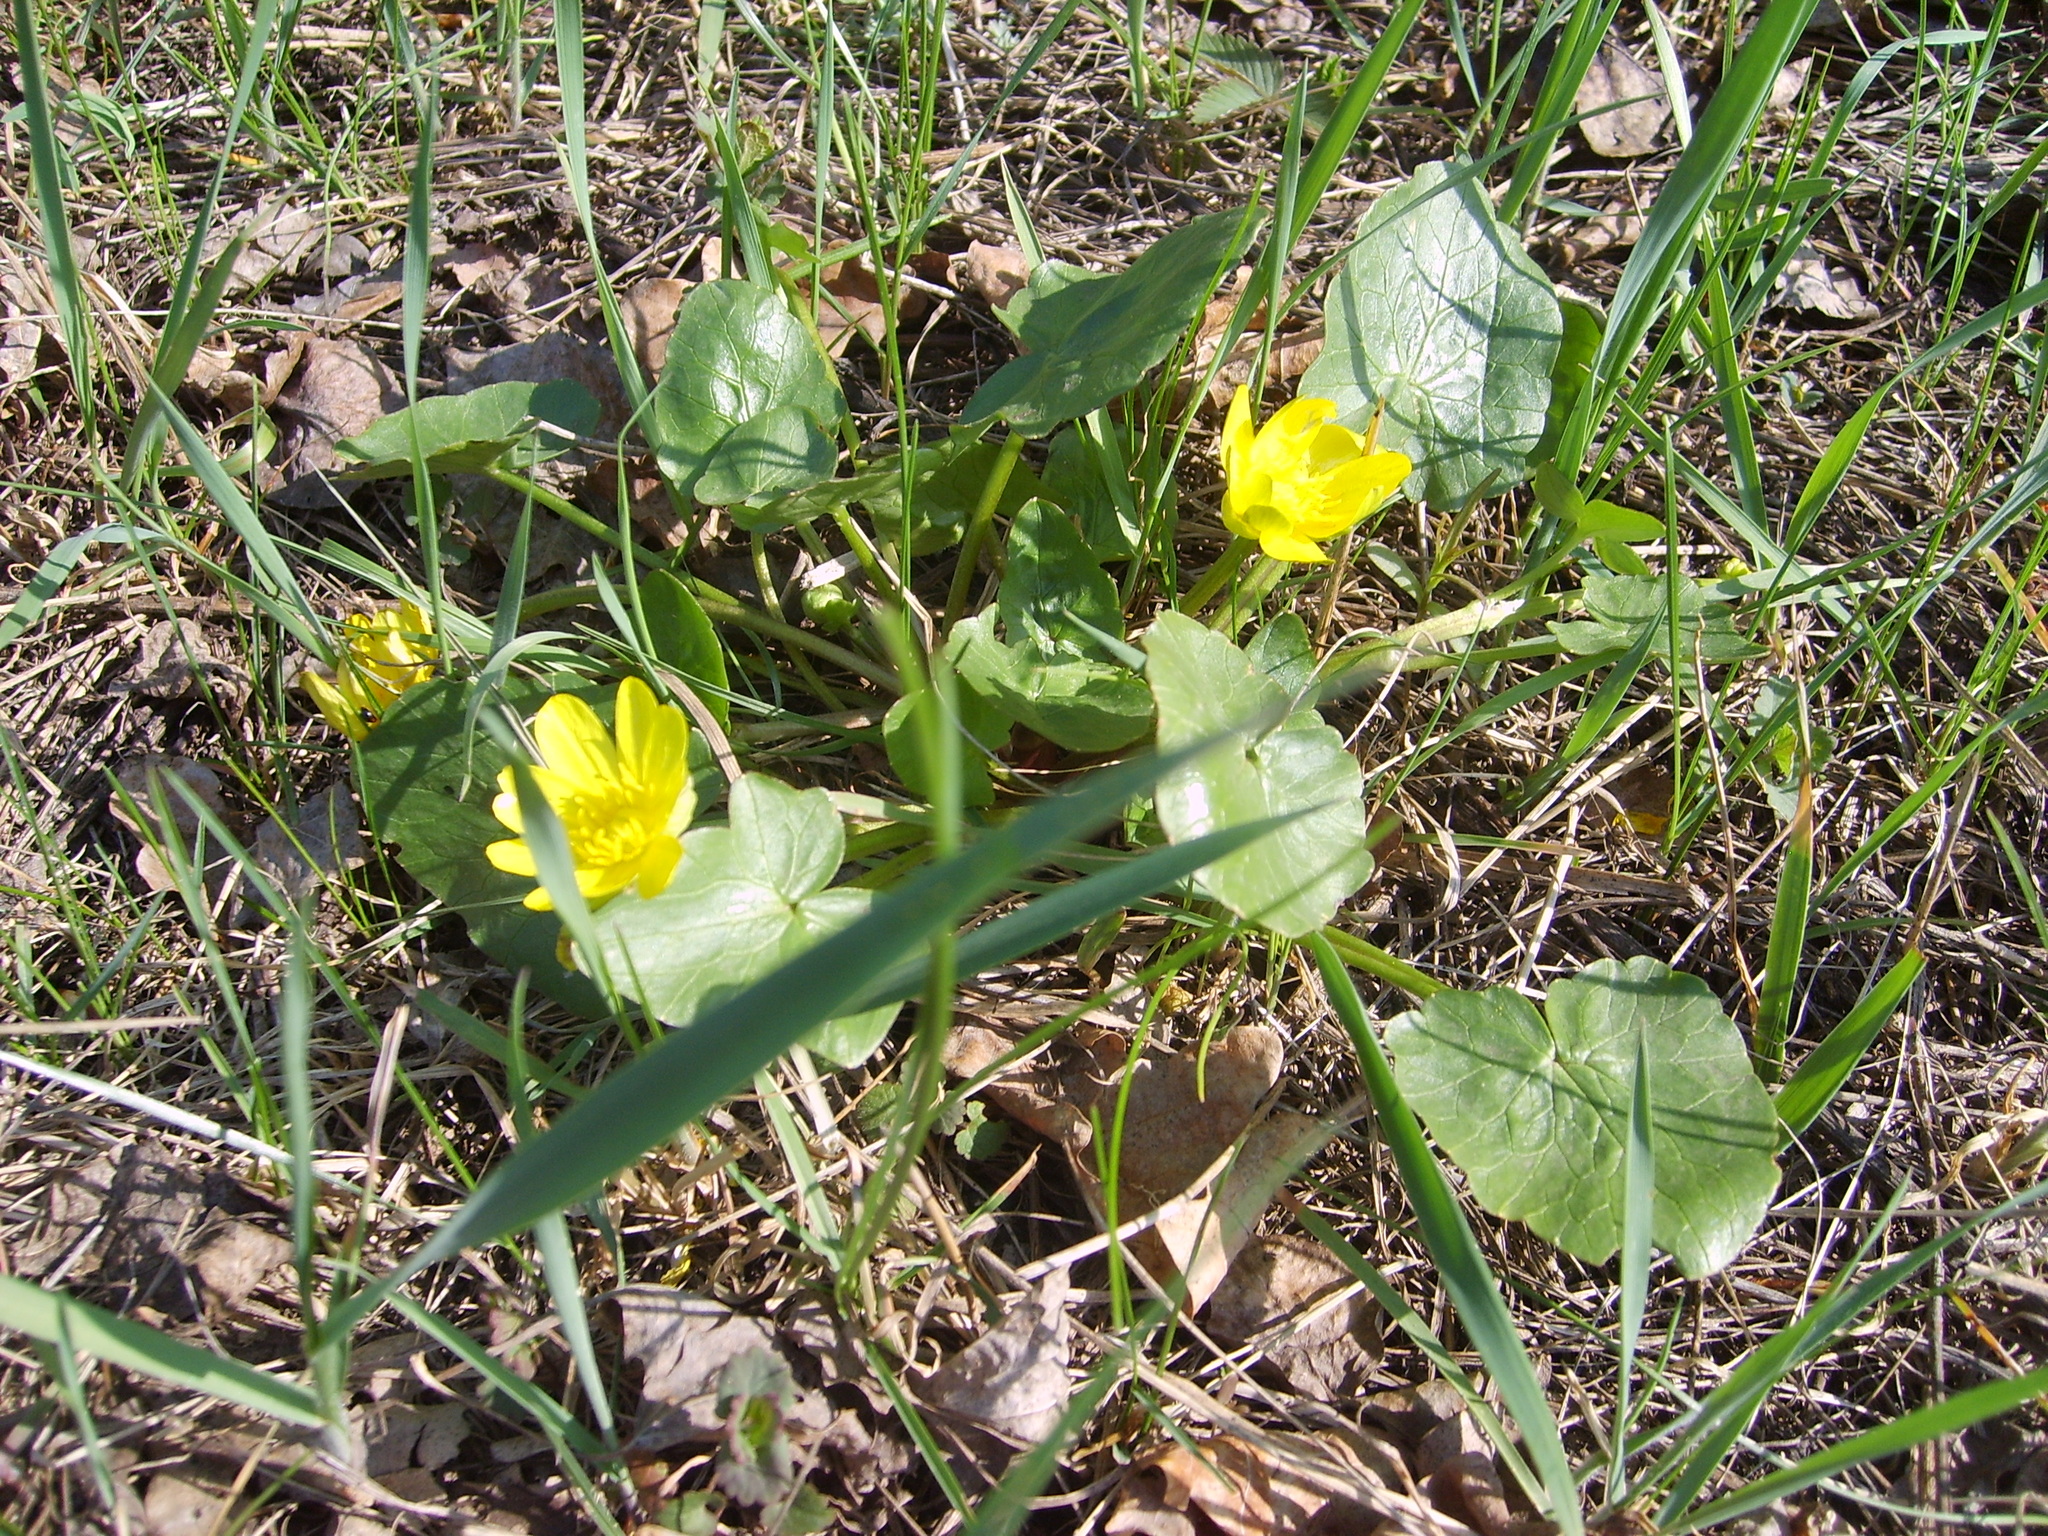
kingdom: Plantae
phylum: Tracheophyta
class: Magnoliopsida
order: Ranunculales
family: Ranunculaceae
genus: Ficaria
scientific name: Ficaria verna
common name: Lesser celandine
